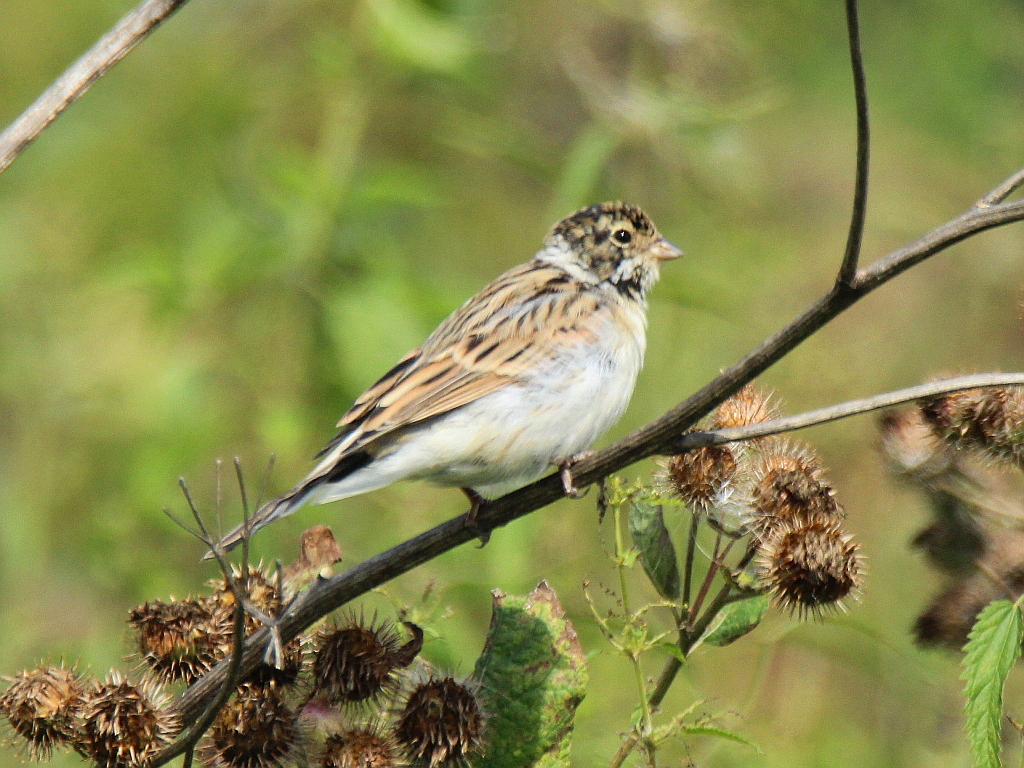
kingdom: Animalia
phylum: Chordata
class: Aves
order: Passeriformes
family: Emberizidae
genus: Emberiza
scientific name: Emberiza schoeniclus
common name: Reed bunting
